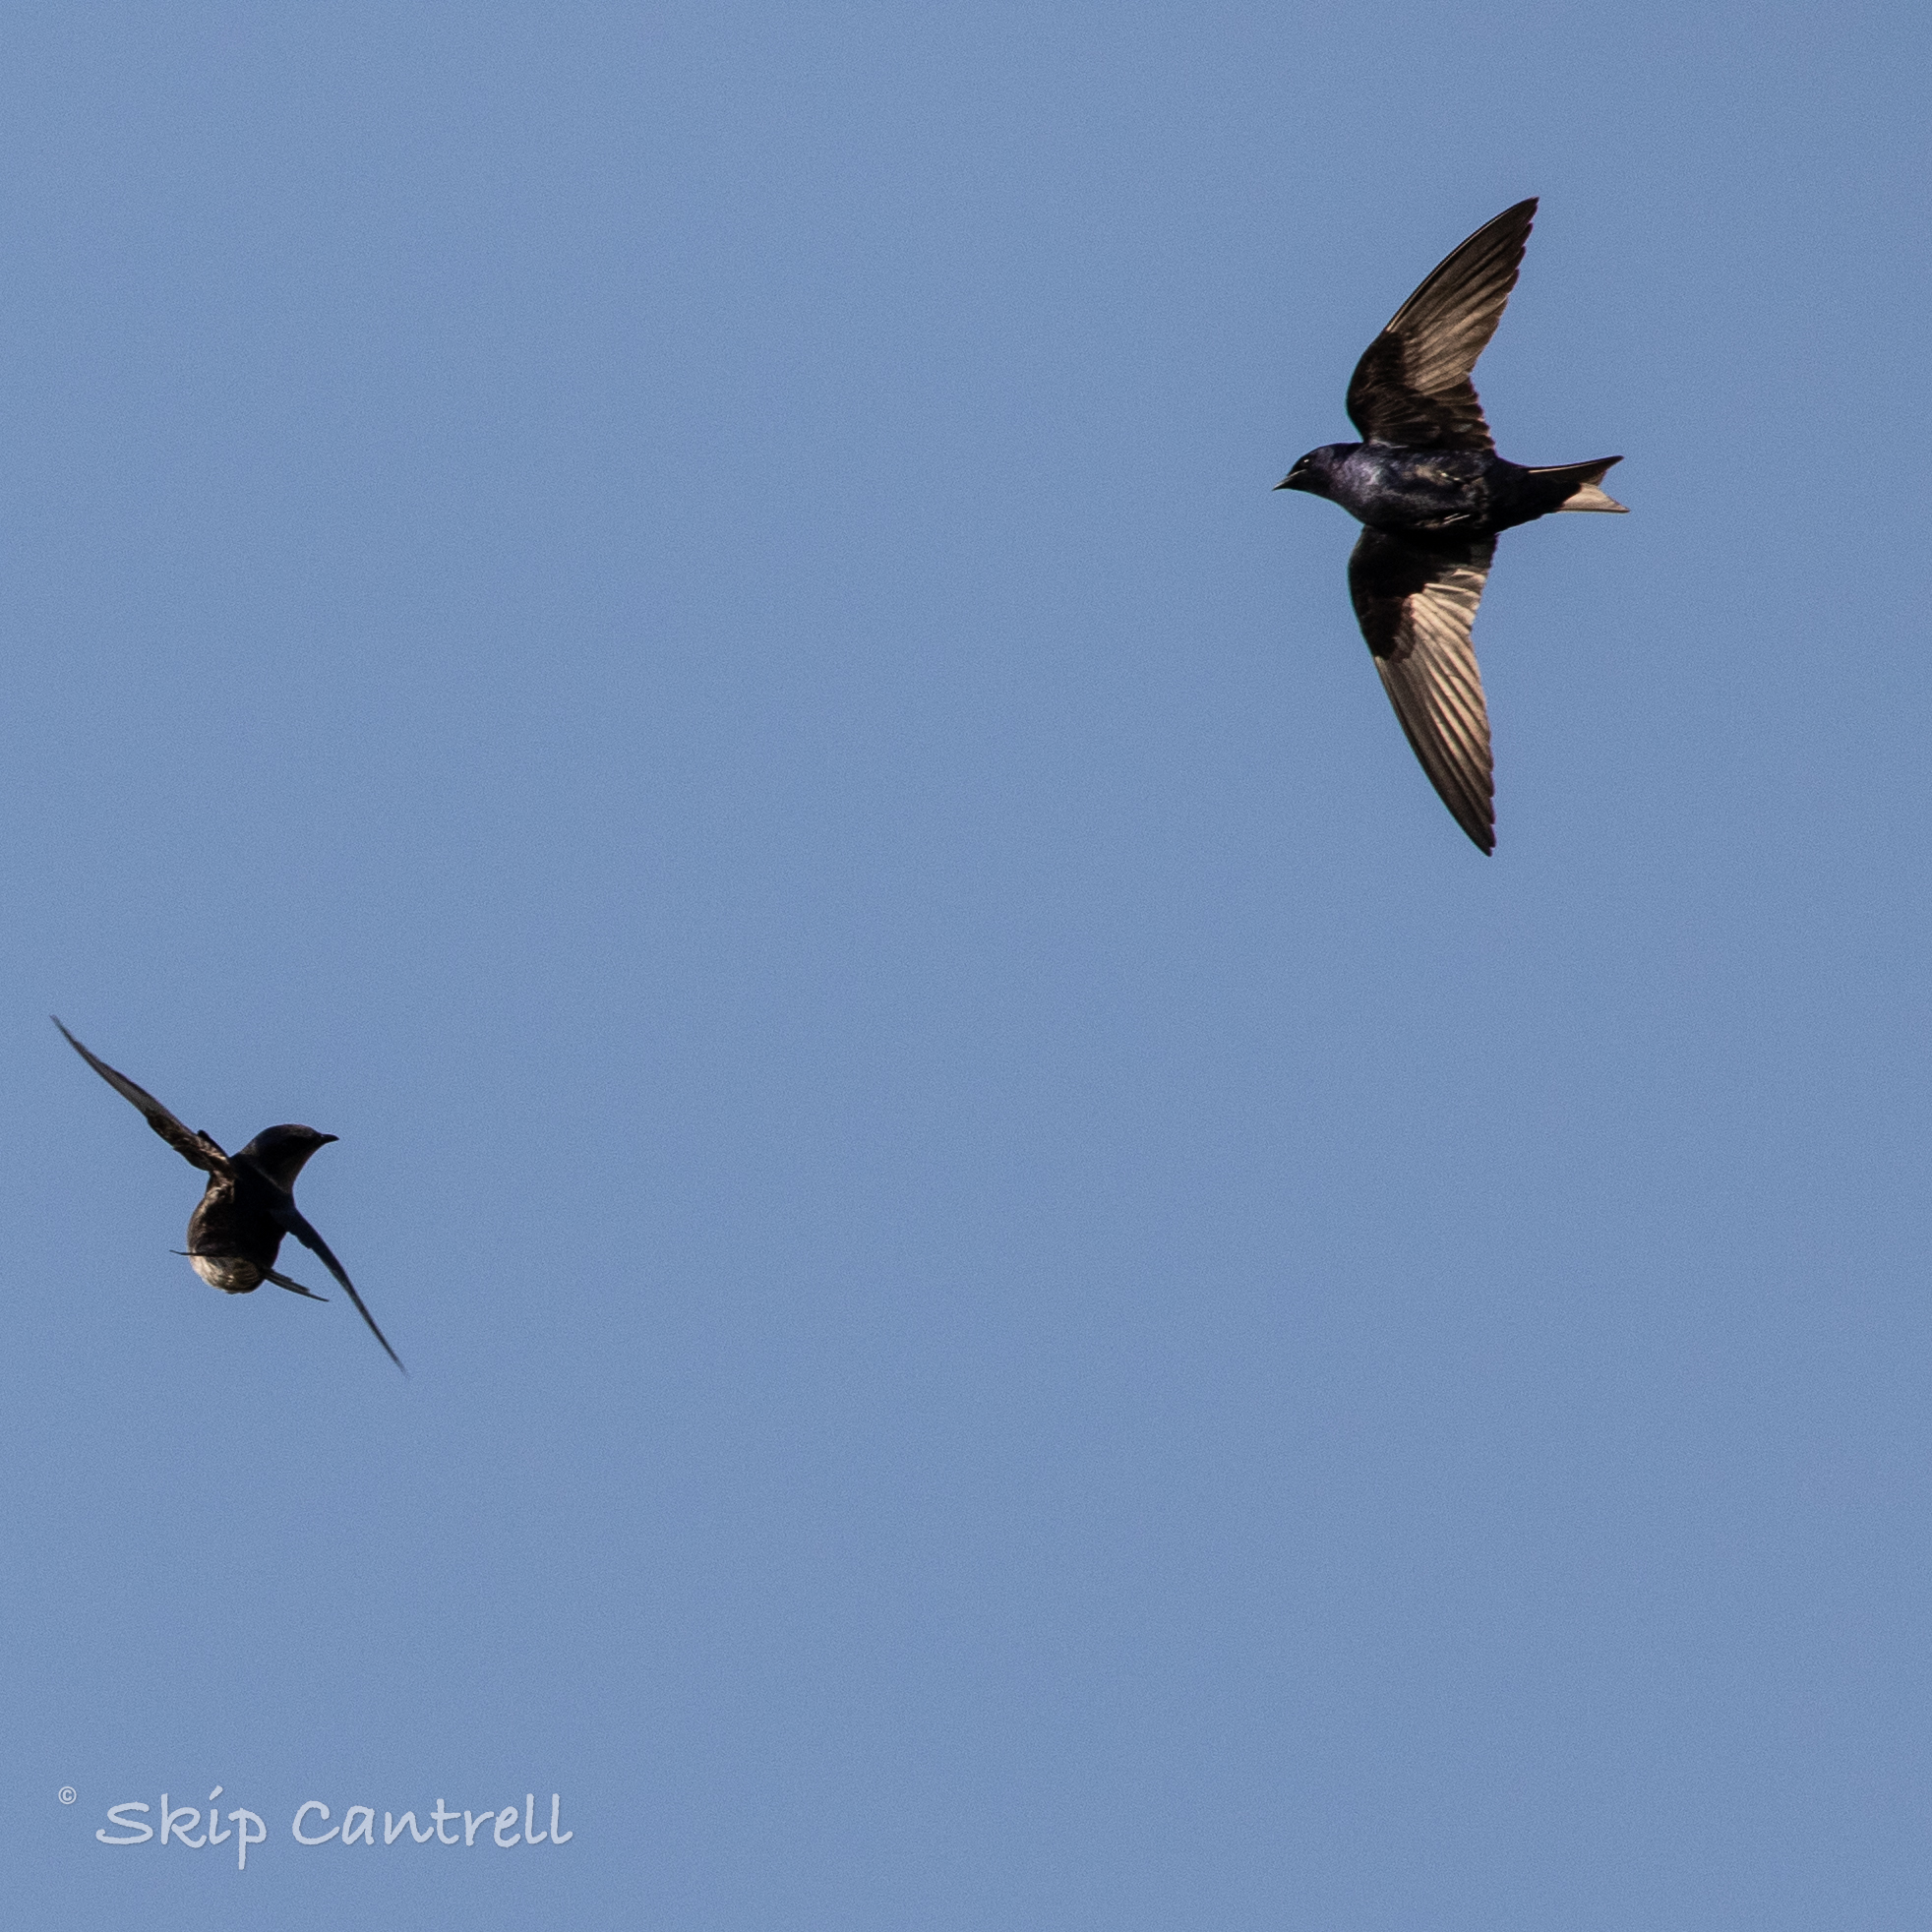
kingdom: Animalia
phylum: Chordata
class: Aves
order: Passeriformes
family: Hirundinidae
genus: Progne
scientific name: Progne subis
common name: Purple martin
